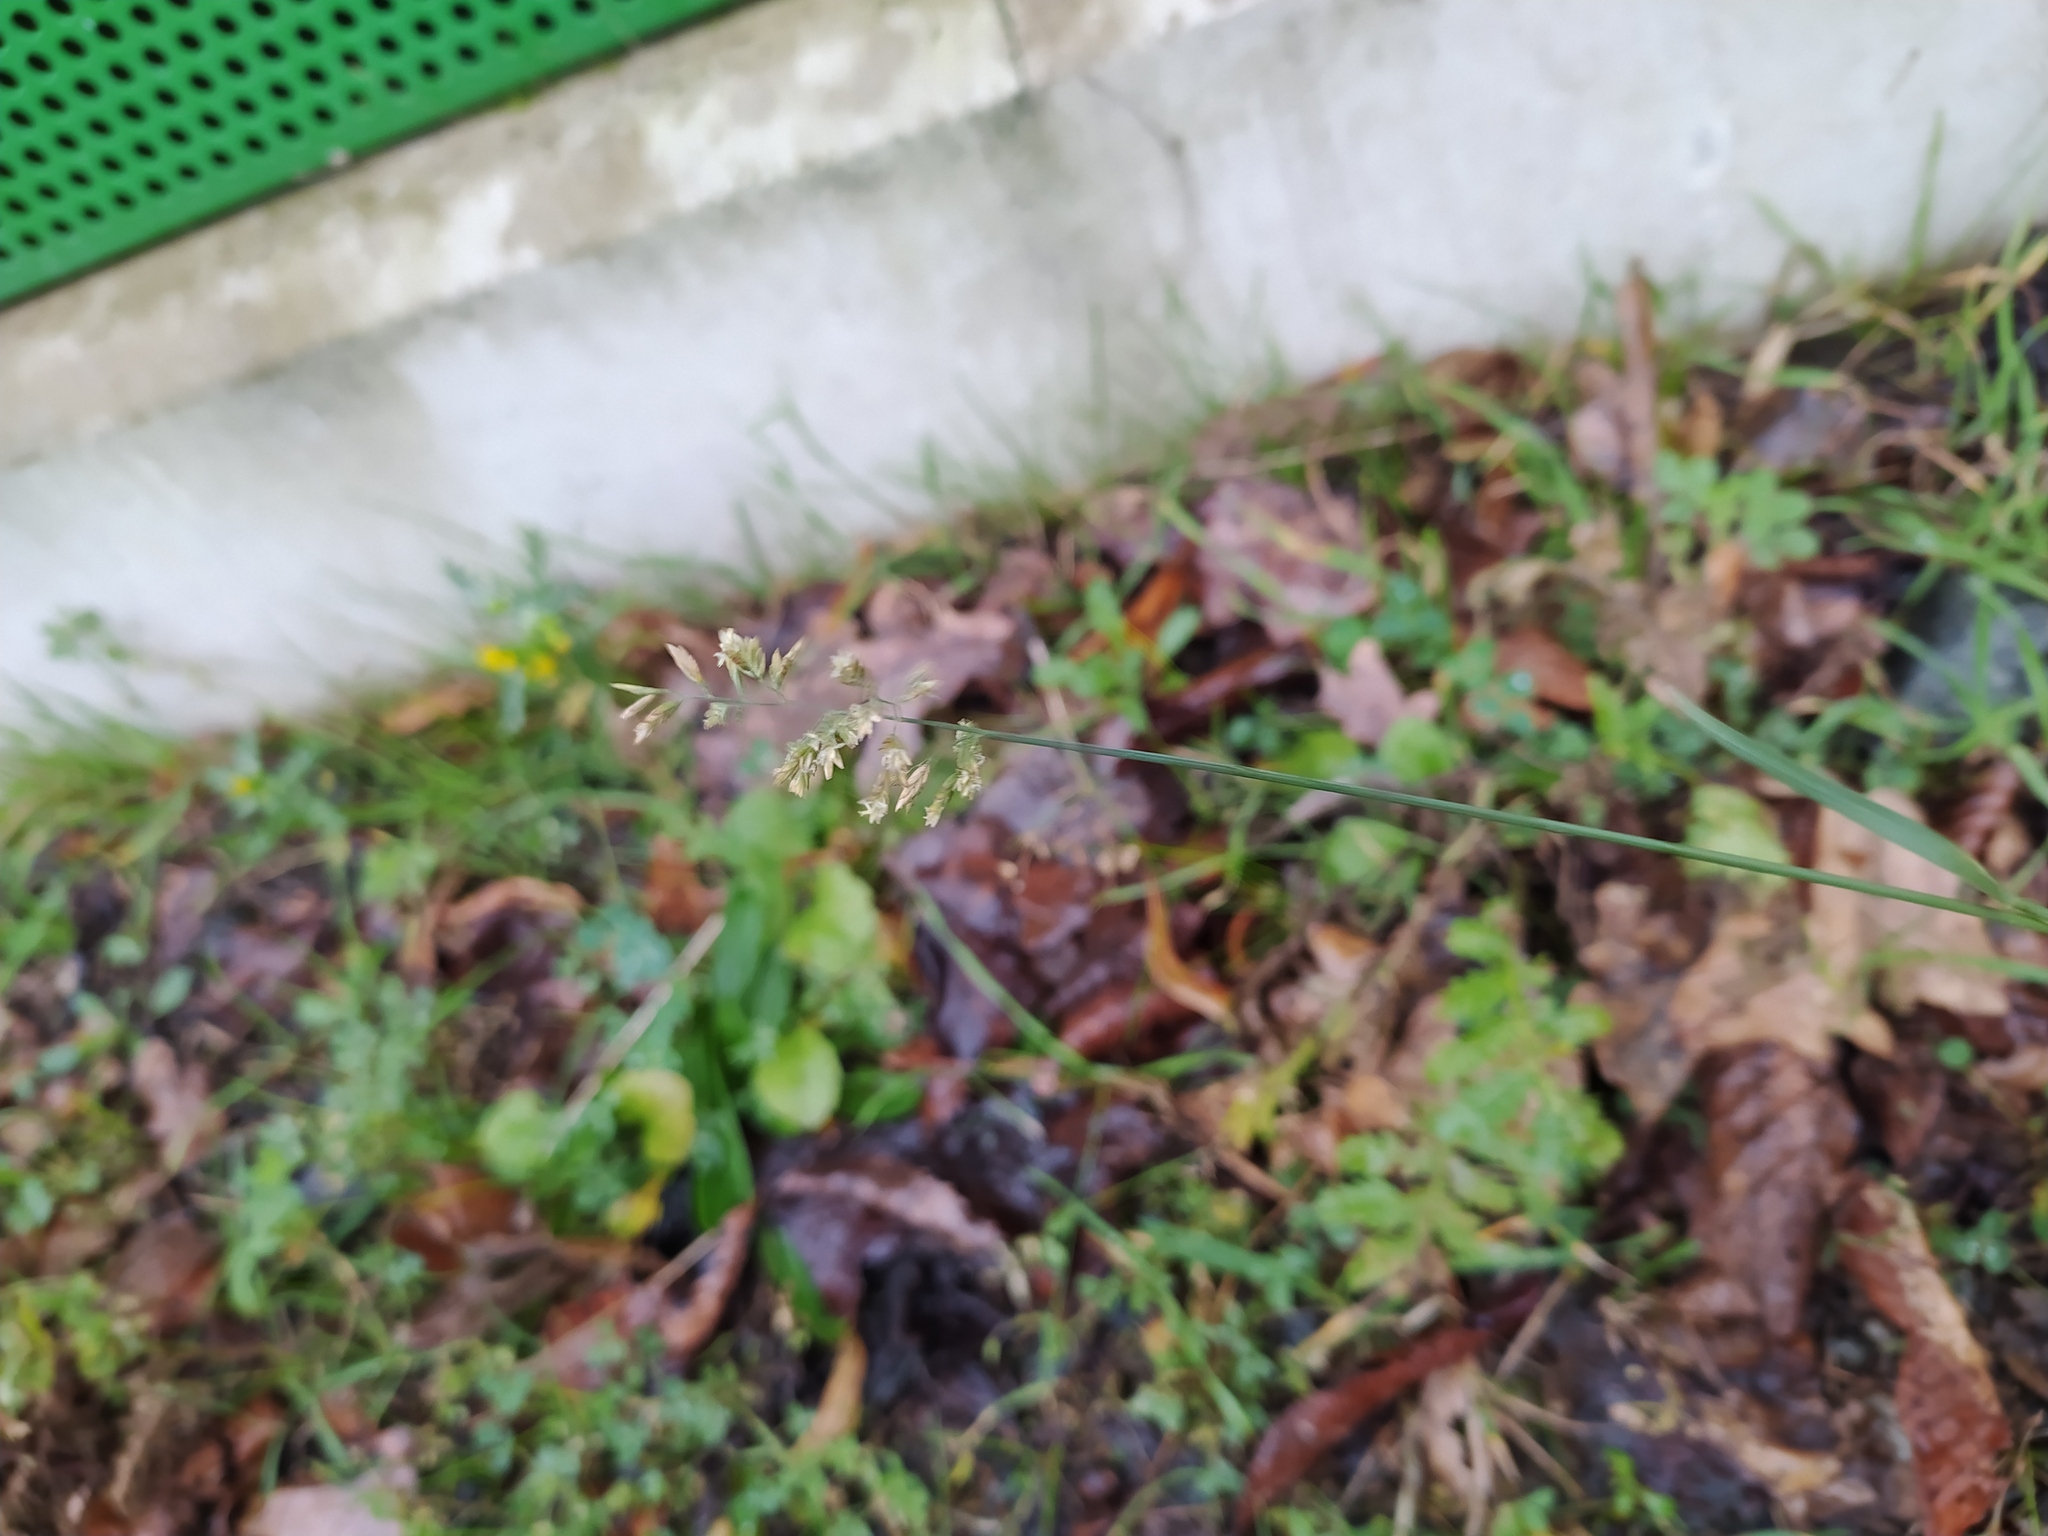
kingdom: Plantae
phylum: Tracheophyta
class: Liliopsida
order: Poales
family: Poaceae
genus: Poa
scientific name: Poa compressa
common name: Canada bluegrass
